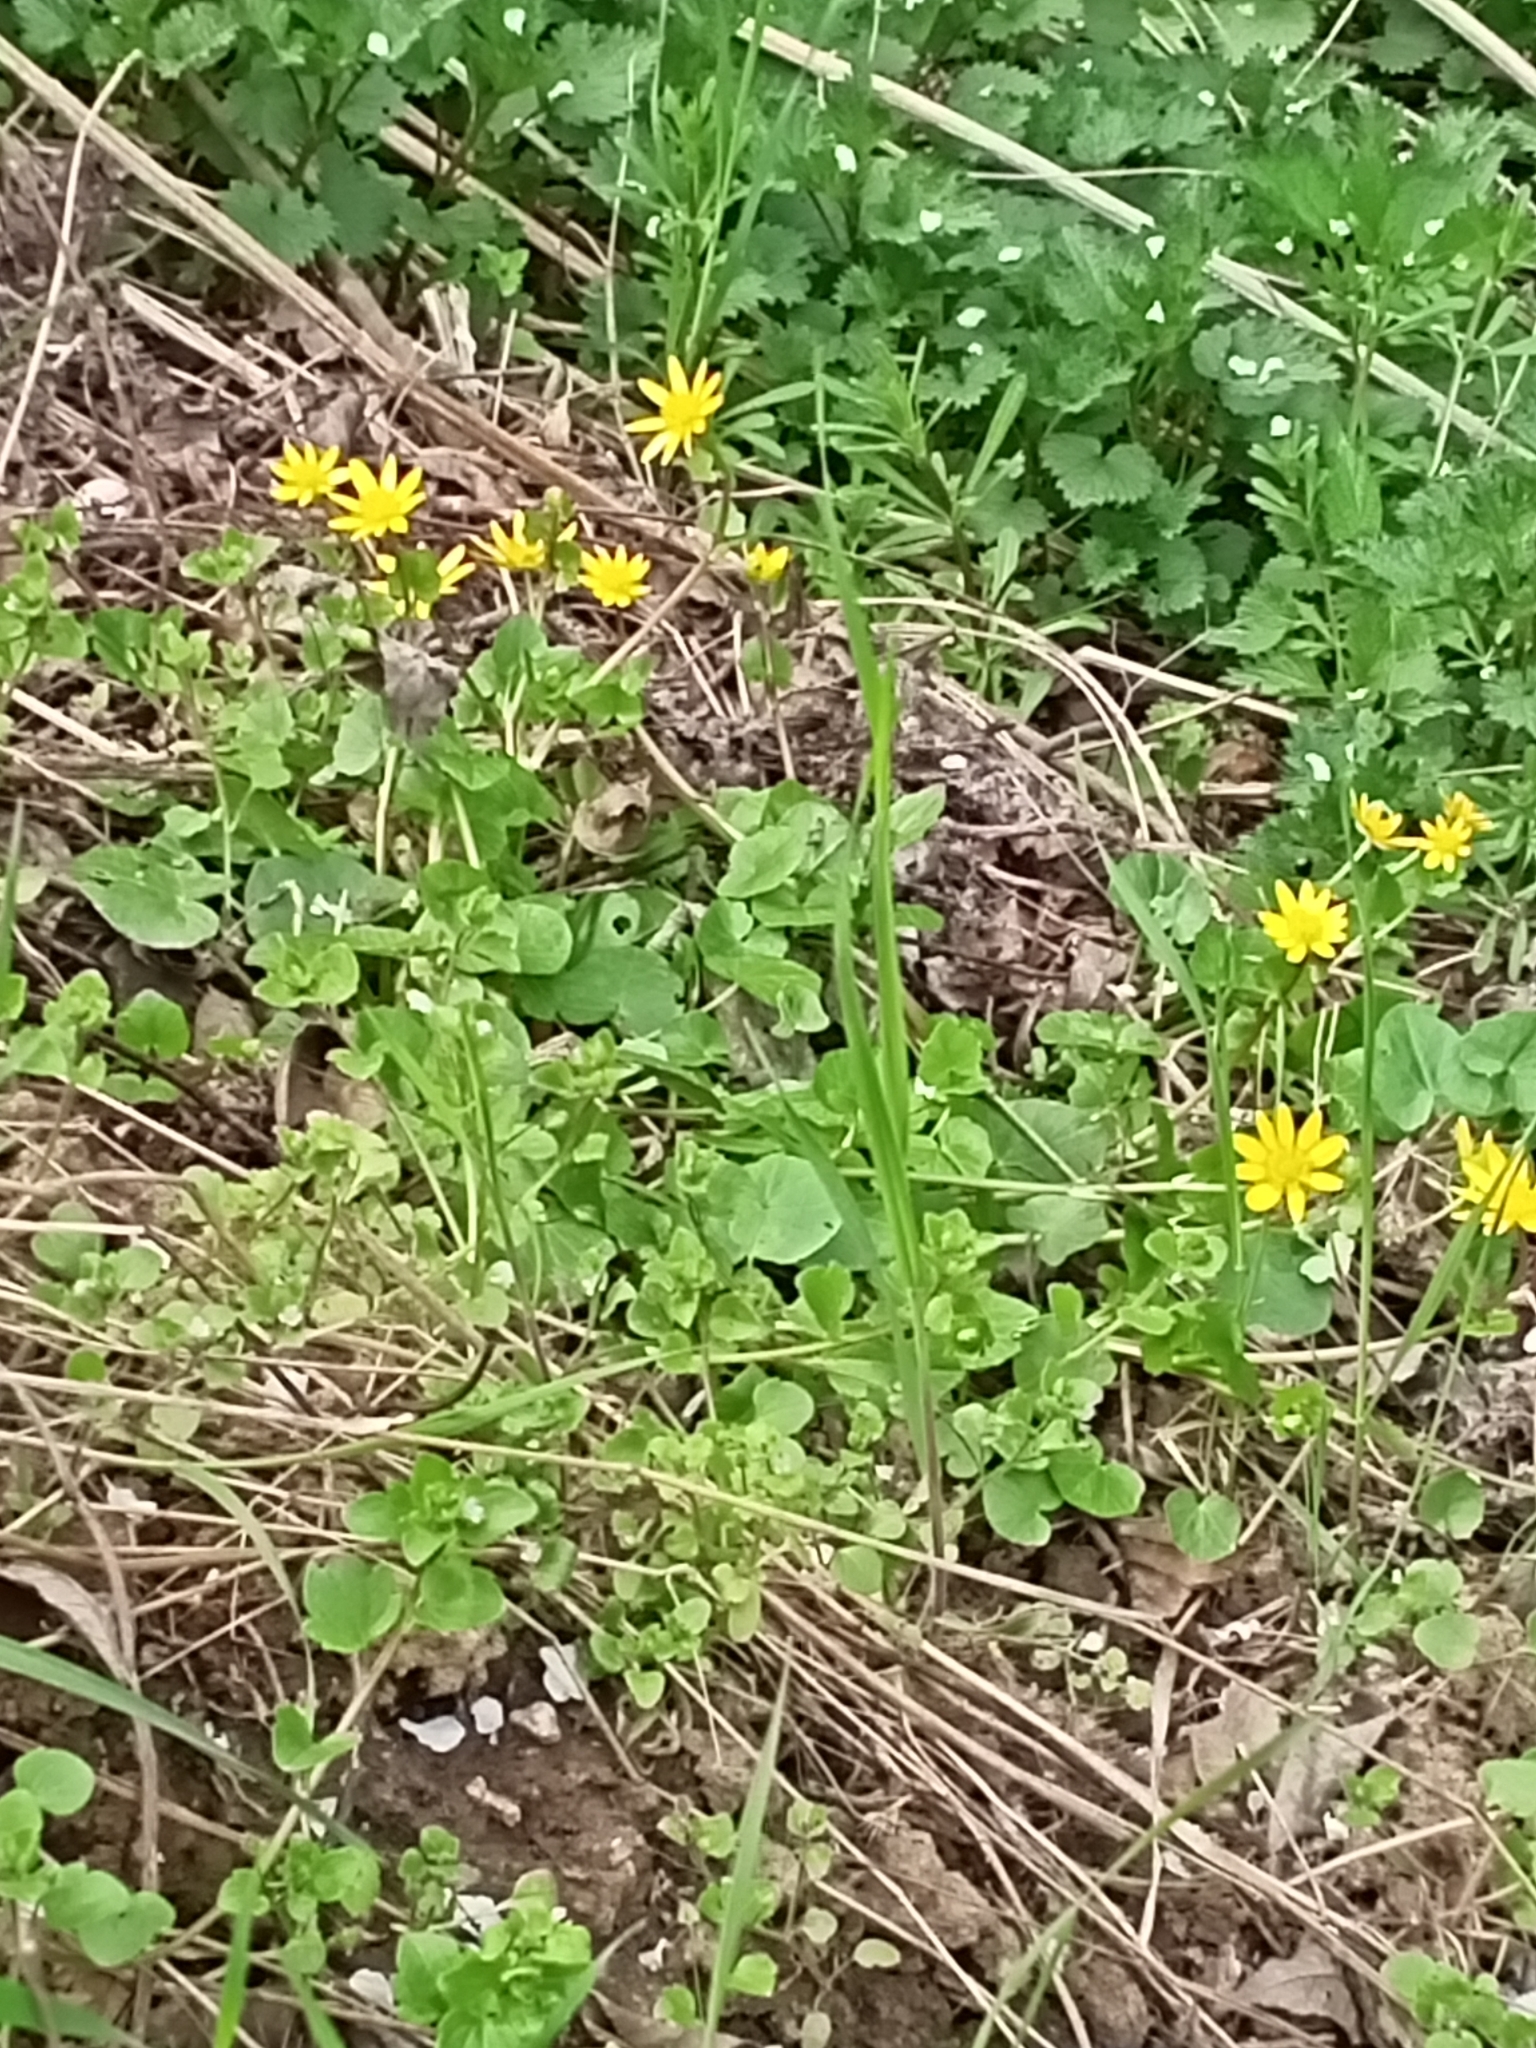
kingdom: Plantae
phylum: Tracheophyta
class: Magnoliopsida
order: Ranunculales
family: Ranunculaceae
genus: Ficaria
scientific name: Ficaria verna
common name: Lesser celandine
